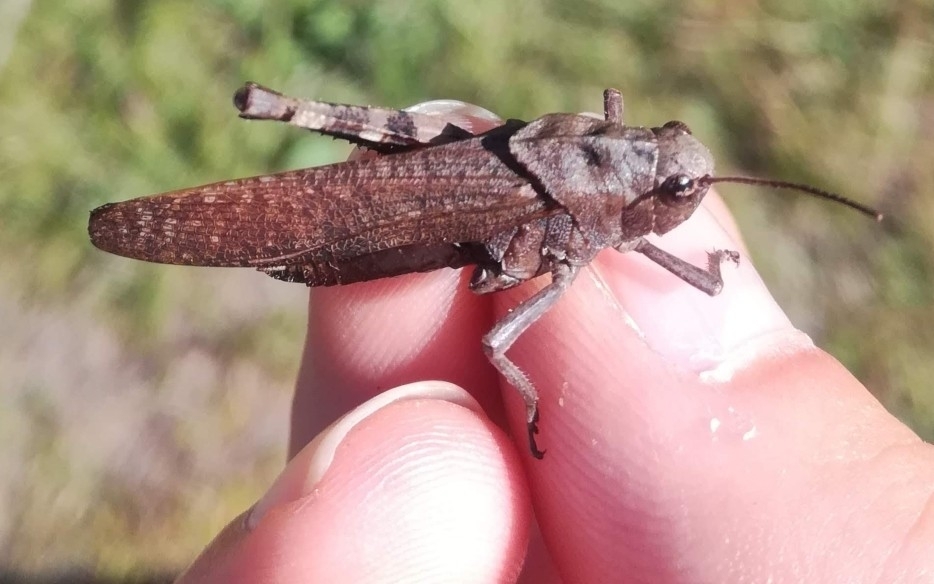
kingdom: Animalia
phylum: Arthropoda
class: Insecta
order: Orthoptera
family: Acrididae
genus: Psophus
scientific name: Psophus stridulus
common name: Rattle grasshopper
